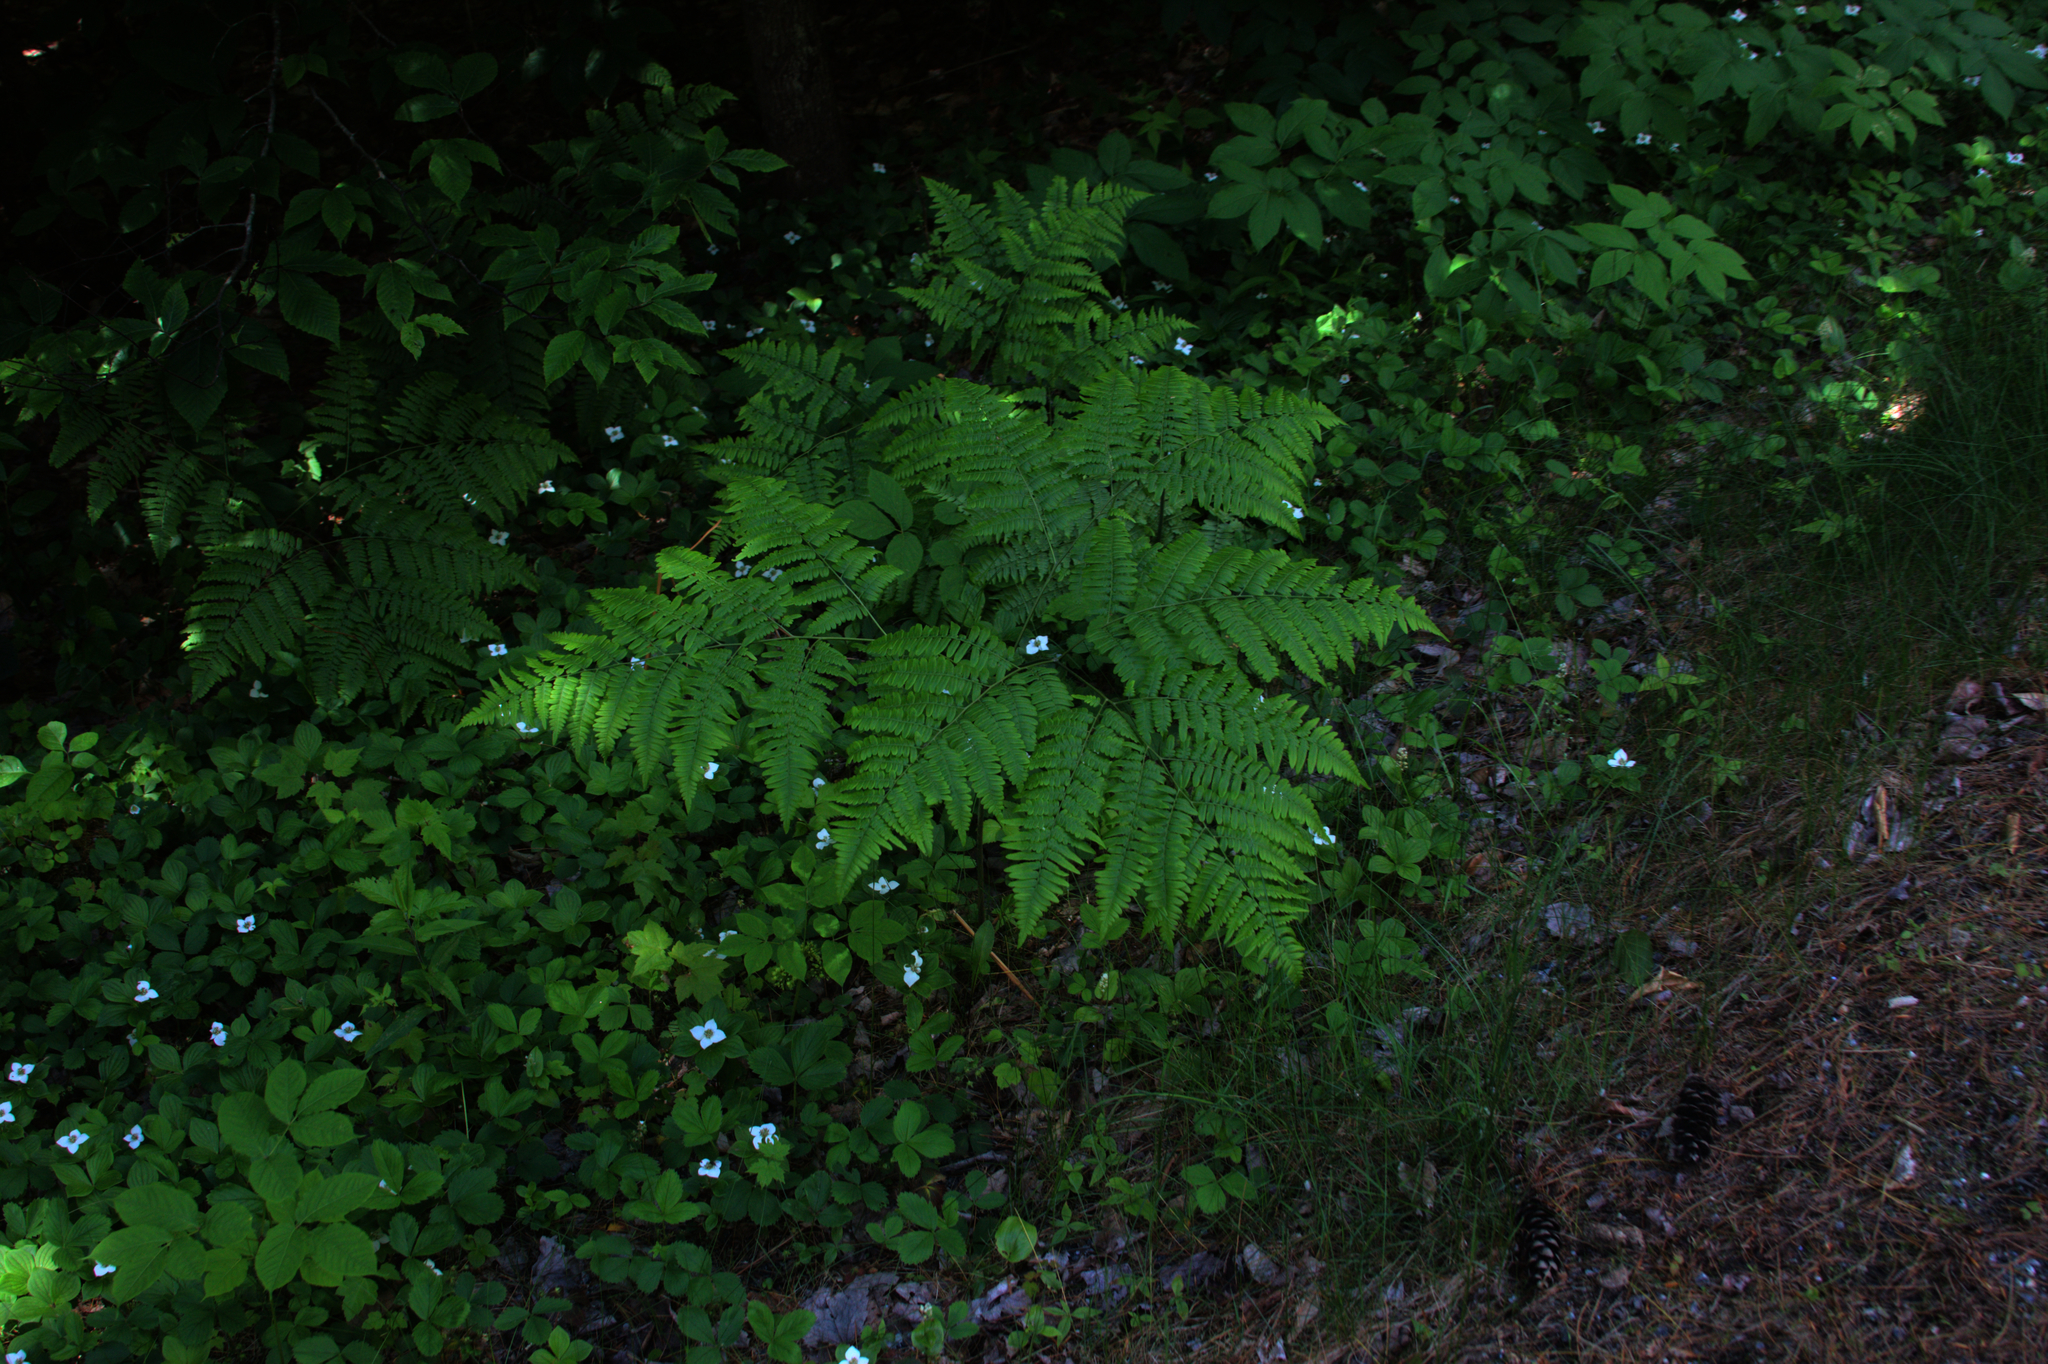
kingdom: Plantae
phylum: Tracheophyta
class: Polypodiopsida
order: Polypodiales
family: Dennstaedtiaceae
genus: Pteridium
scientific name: Pteridium aquilinum
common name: Bracken
